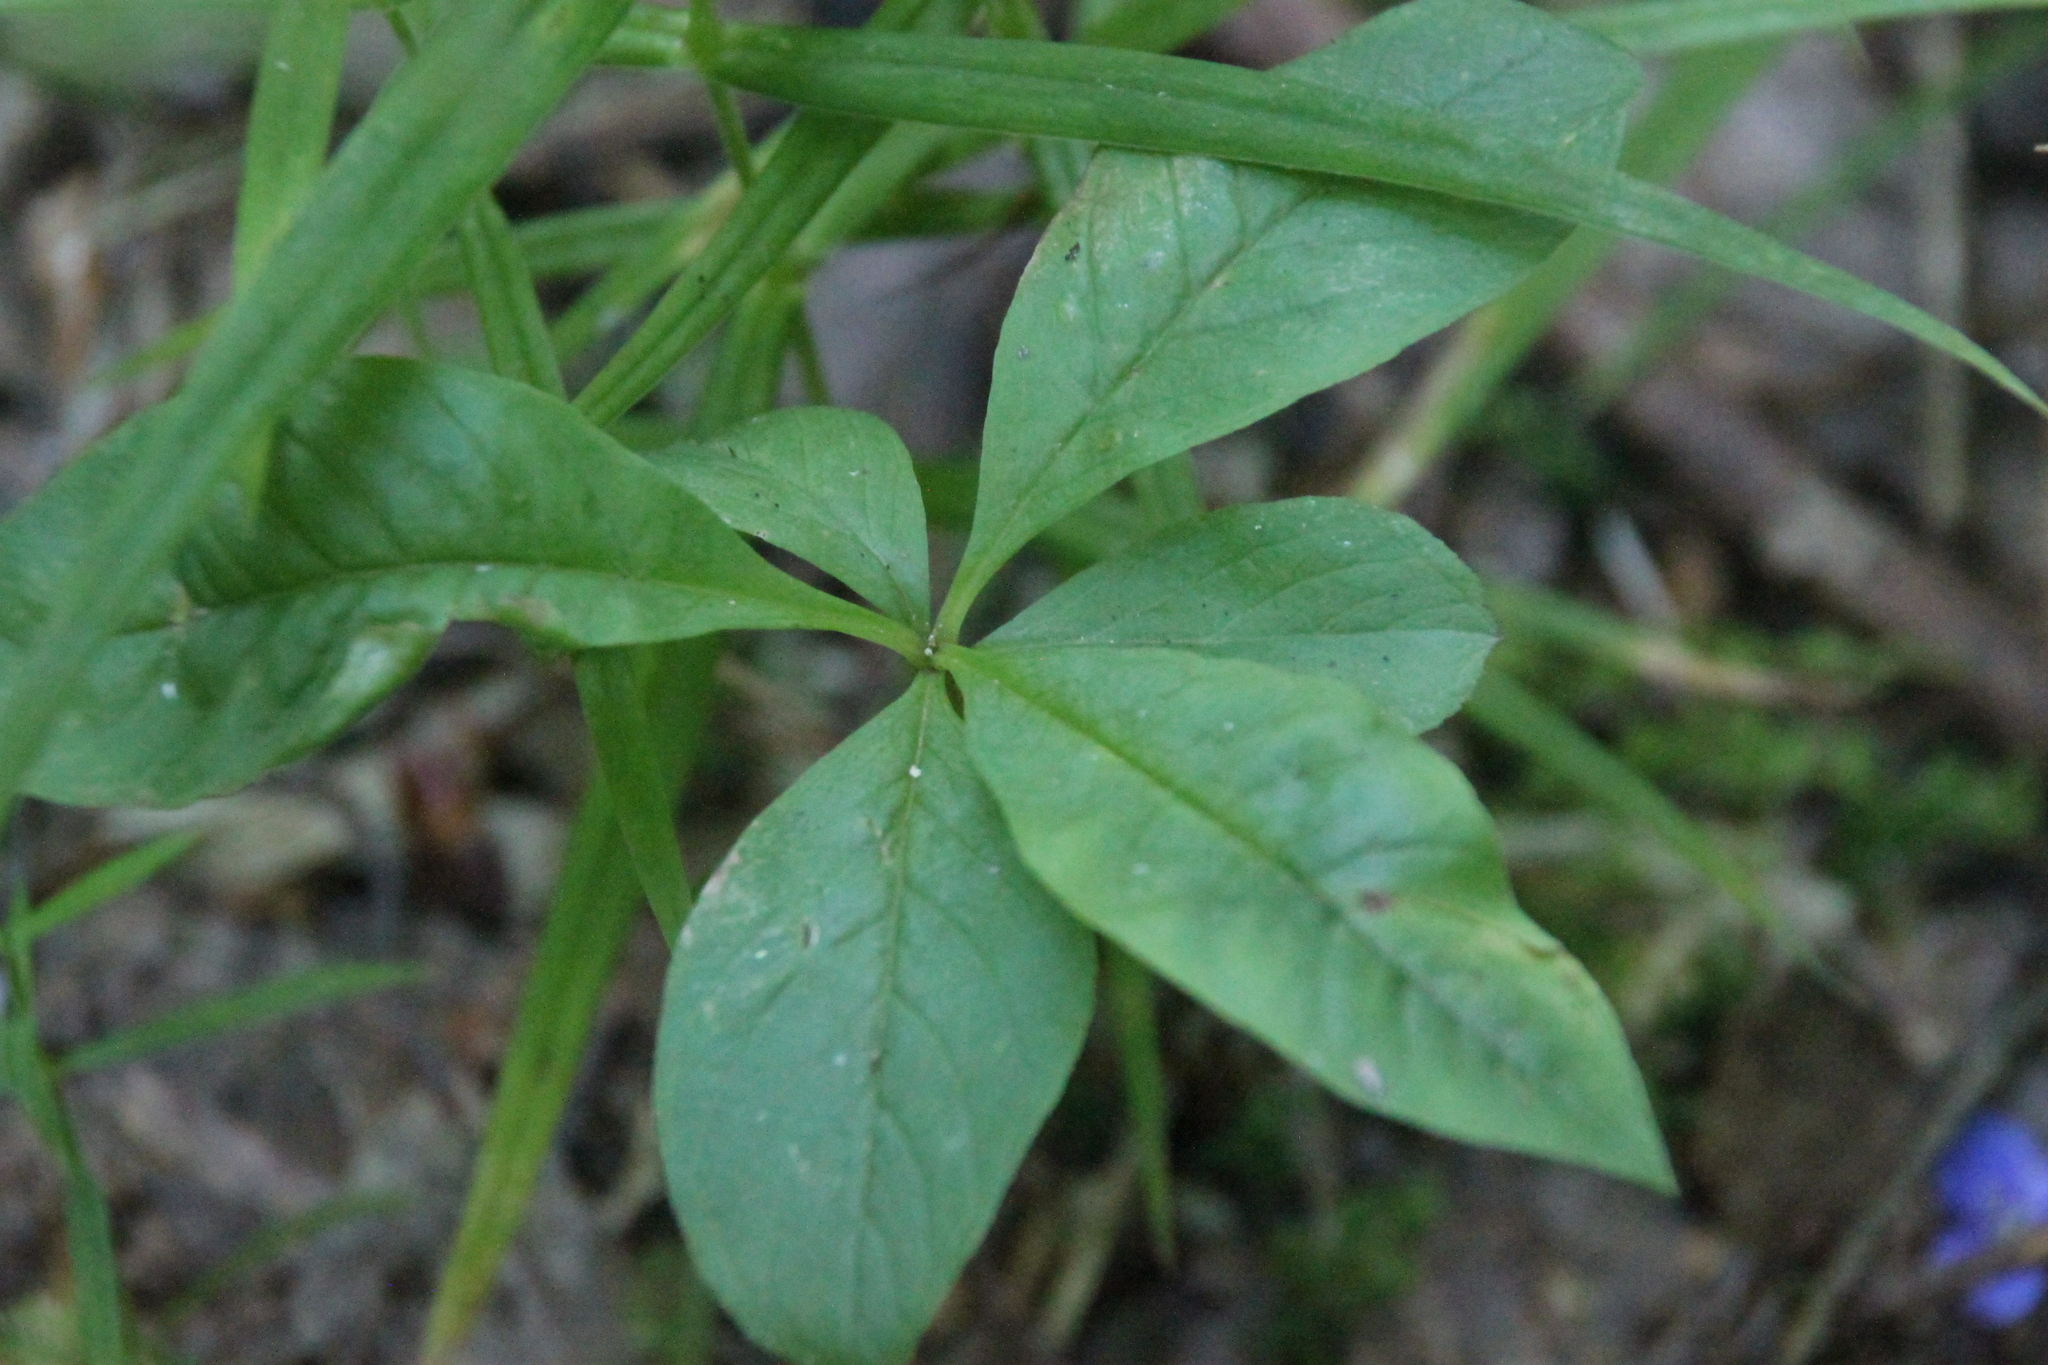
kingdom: Plantae
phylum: Tracheophyta
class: Magnoliopsida
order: Ericales
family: Primulaceae
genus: Lysimachia
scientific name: Lysimachia europaea
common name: Arctic starflower
